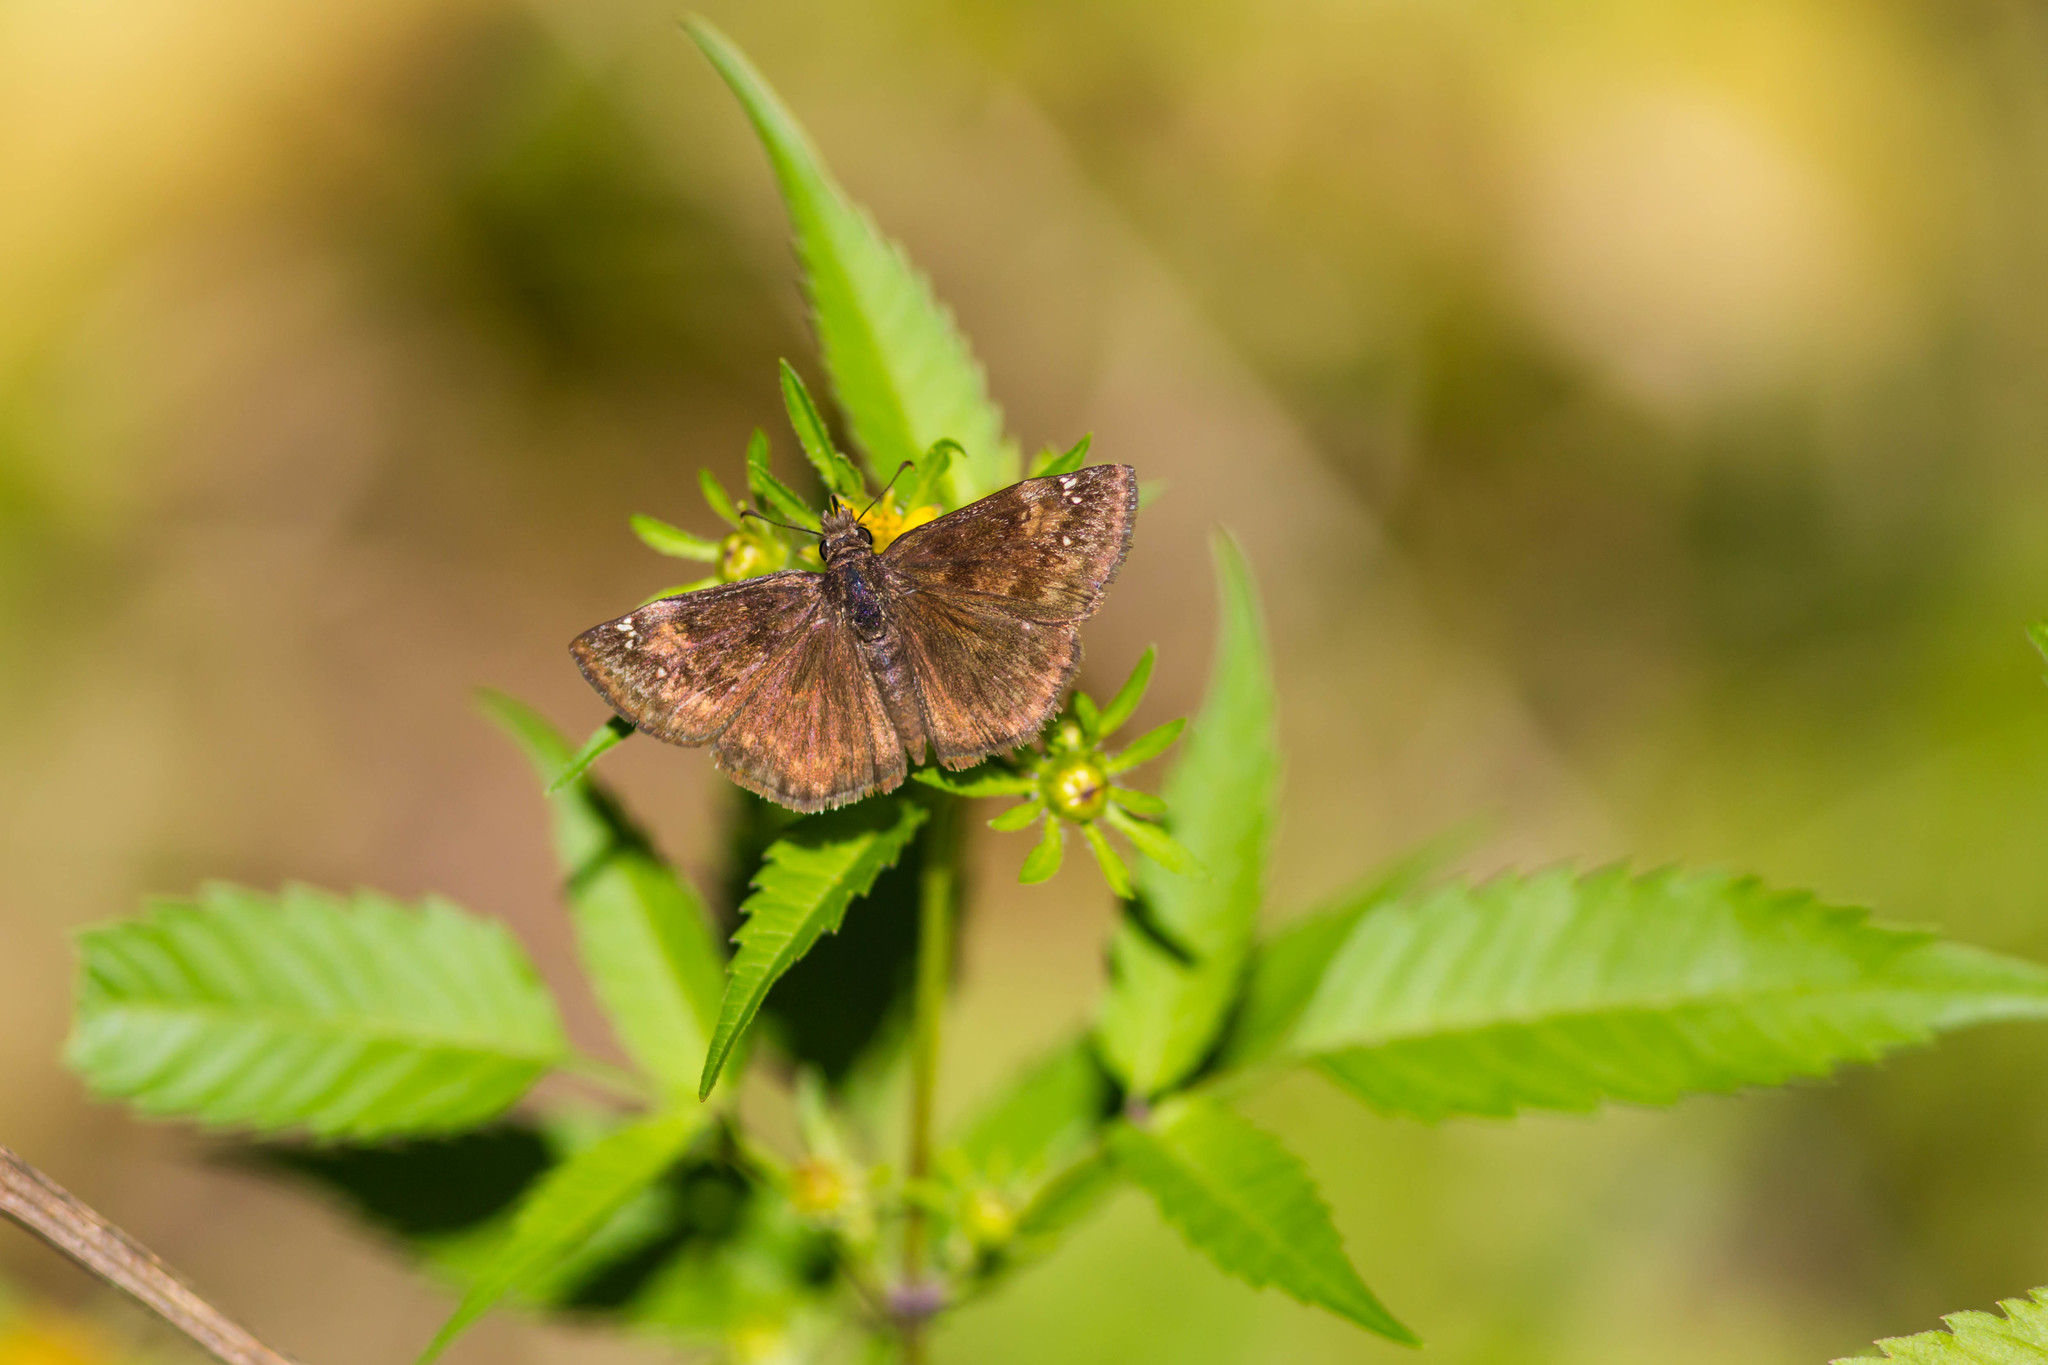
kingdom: Animalia
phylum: Arthropoda
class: Insecta
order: Lepidoptera
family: Hesperiidae
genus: Erynnis
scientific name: Erynnis baptisiae
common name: Wild indigo duskywing
